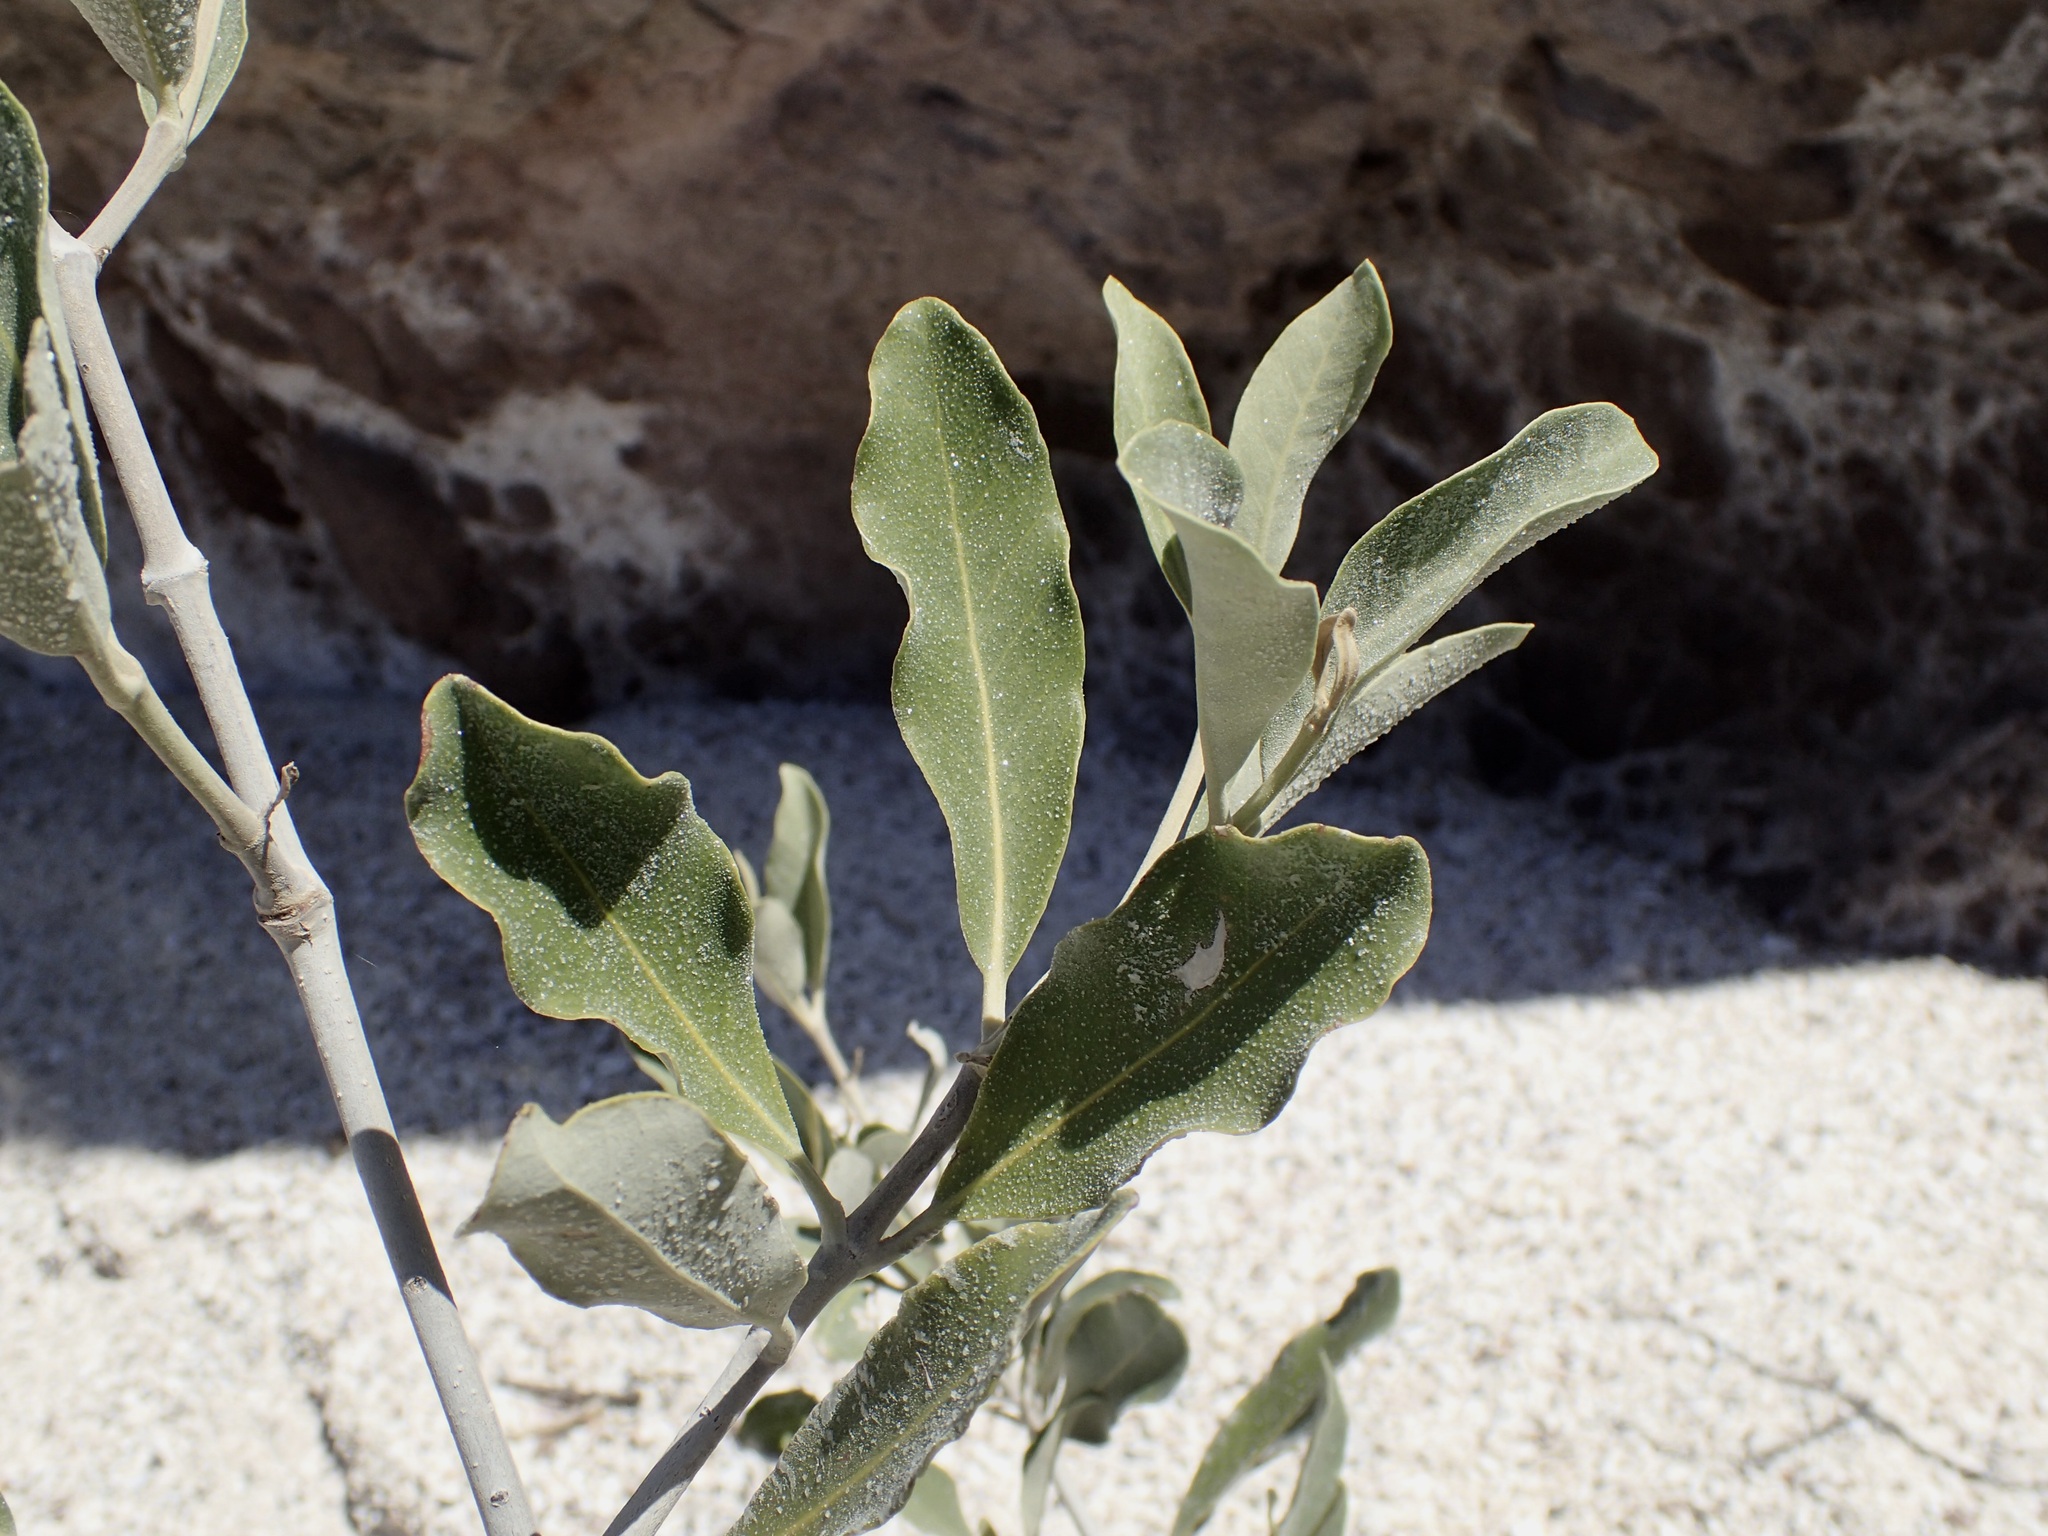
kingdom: Plantae
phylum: Tracheophyta
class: Magnoliopsida
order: Lamiales
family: Acanthaceae
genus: Avicennia
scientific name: Avicennia germinans
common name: Black mangrove
